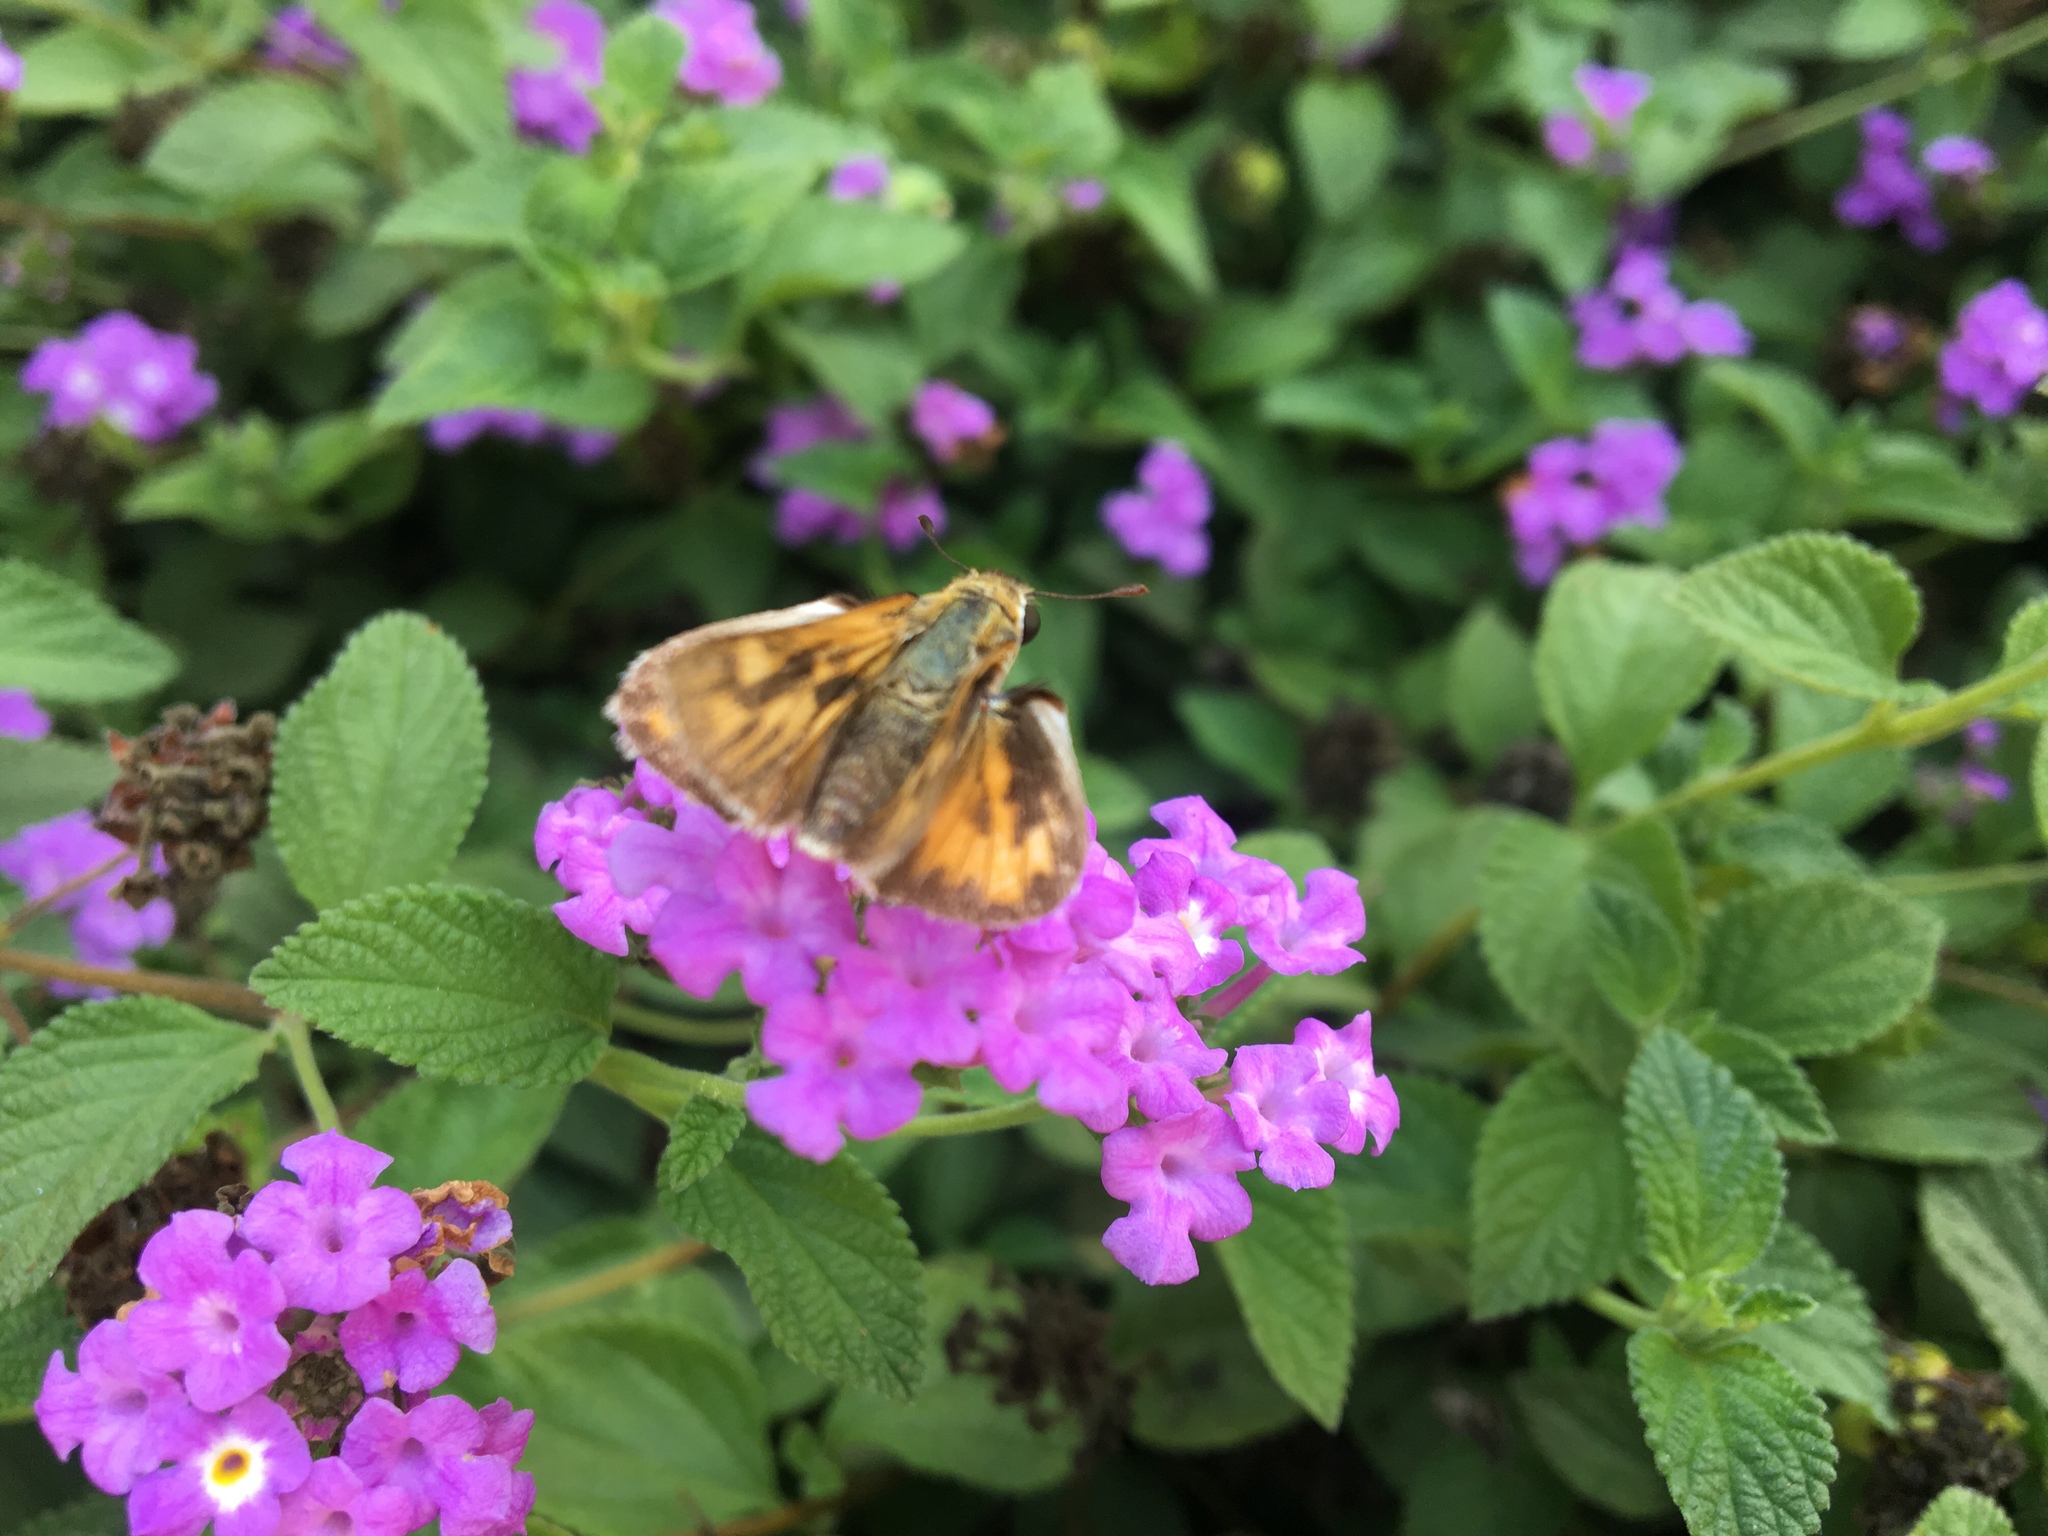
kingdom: Animalia
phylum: Arthropoda
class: Insecta
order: Lepidoptera
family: Hesperiidae
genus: Hylephila
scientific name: Hylephila phyleus
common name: Fiery skipper
